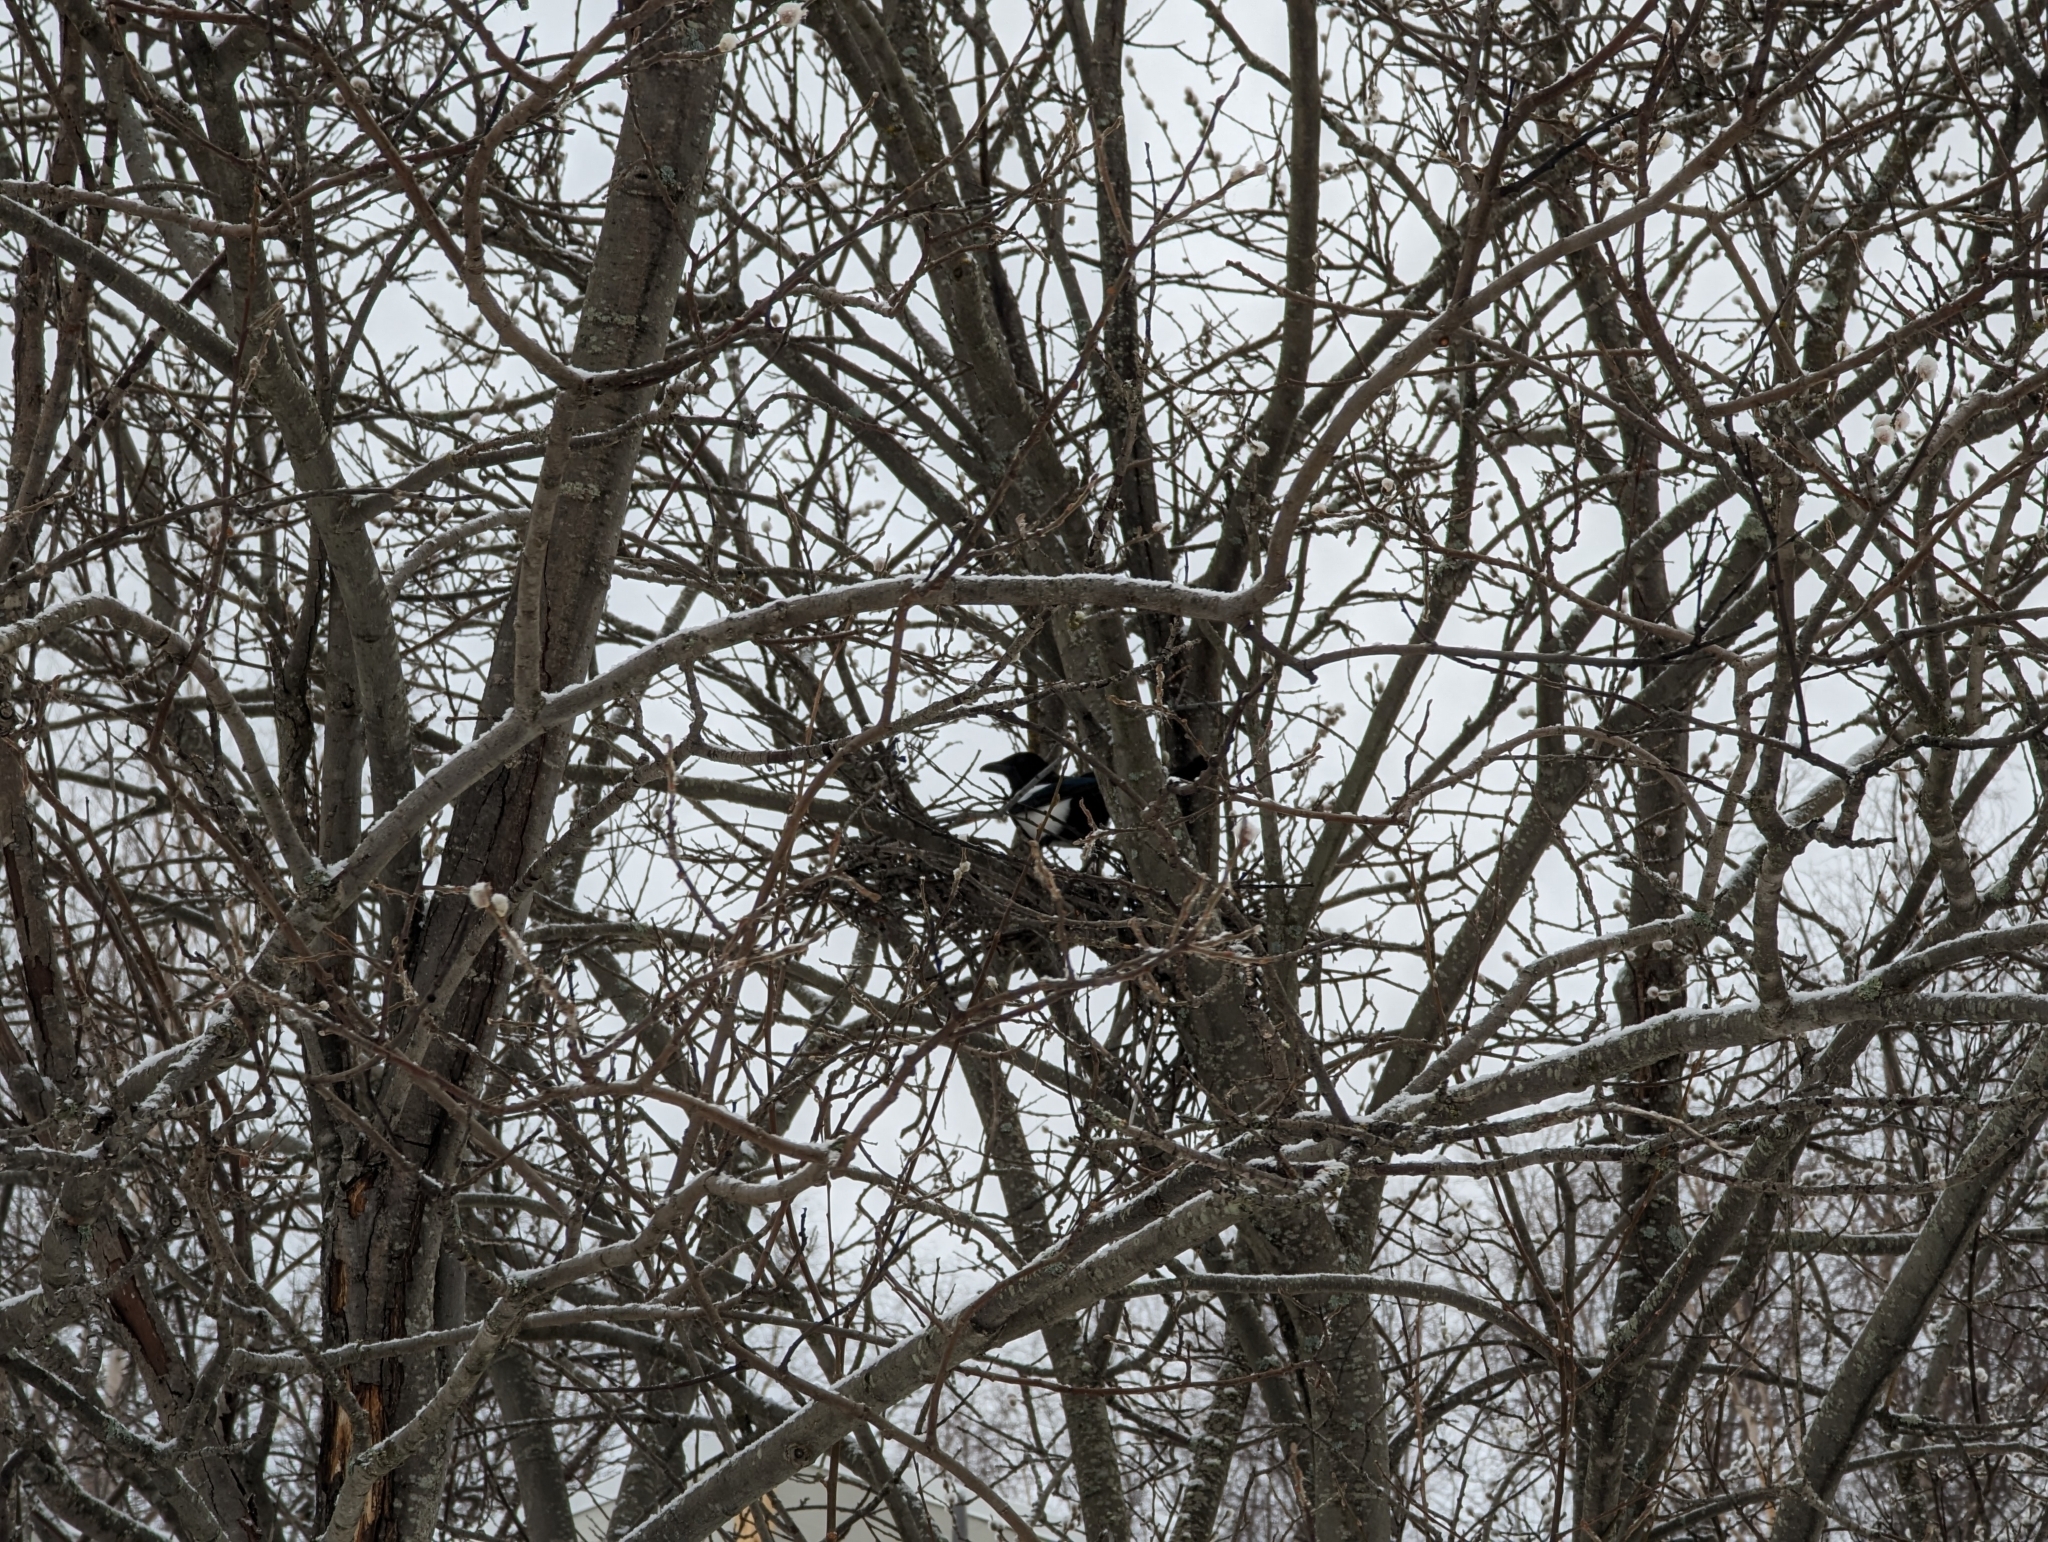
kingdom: Animalia
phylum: Chordata
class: Aves
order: Passeriformes
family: Corvidae
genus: Pica
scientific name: Pica hudsonia
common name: Black-billed magpie
